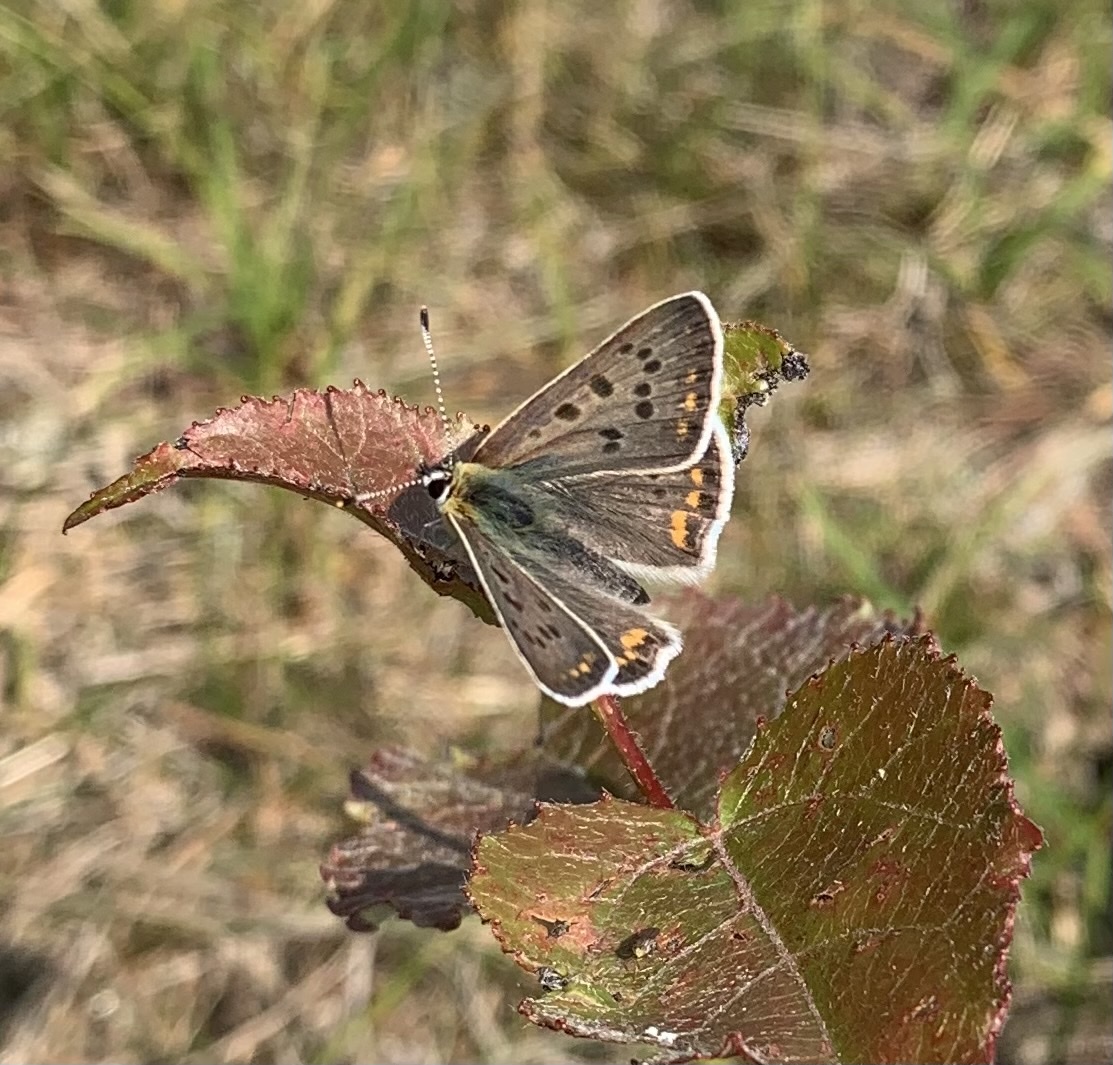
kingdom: Animalia
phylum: Arthropoda
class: Insecta
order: Lepidoptera
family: Lycaenidae
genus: Loweia
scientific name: Loweia tityrus
